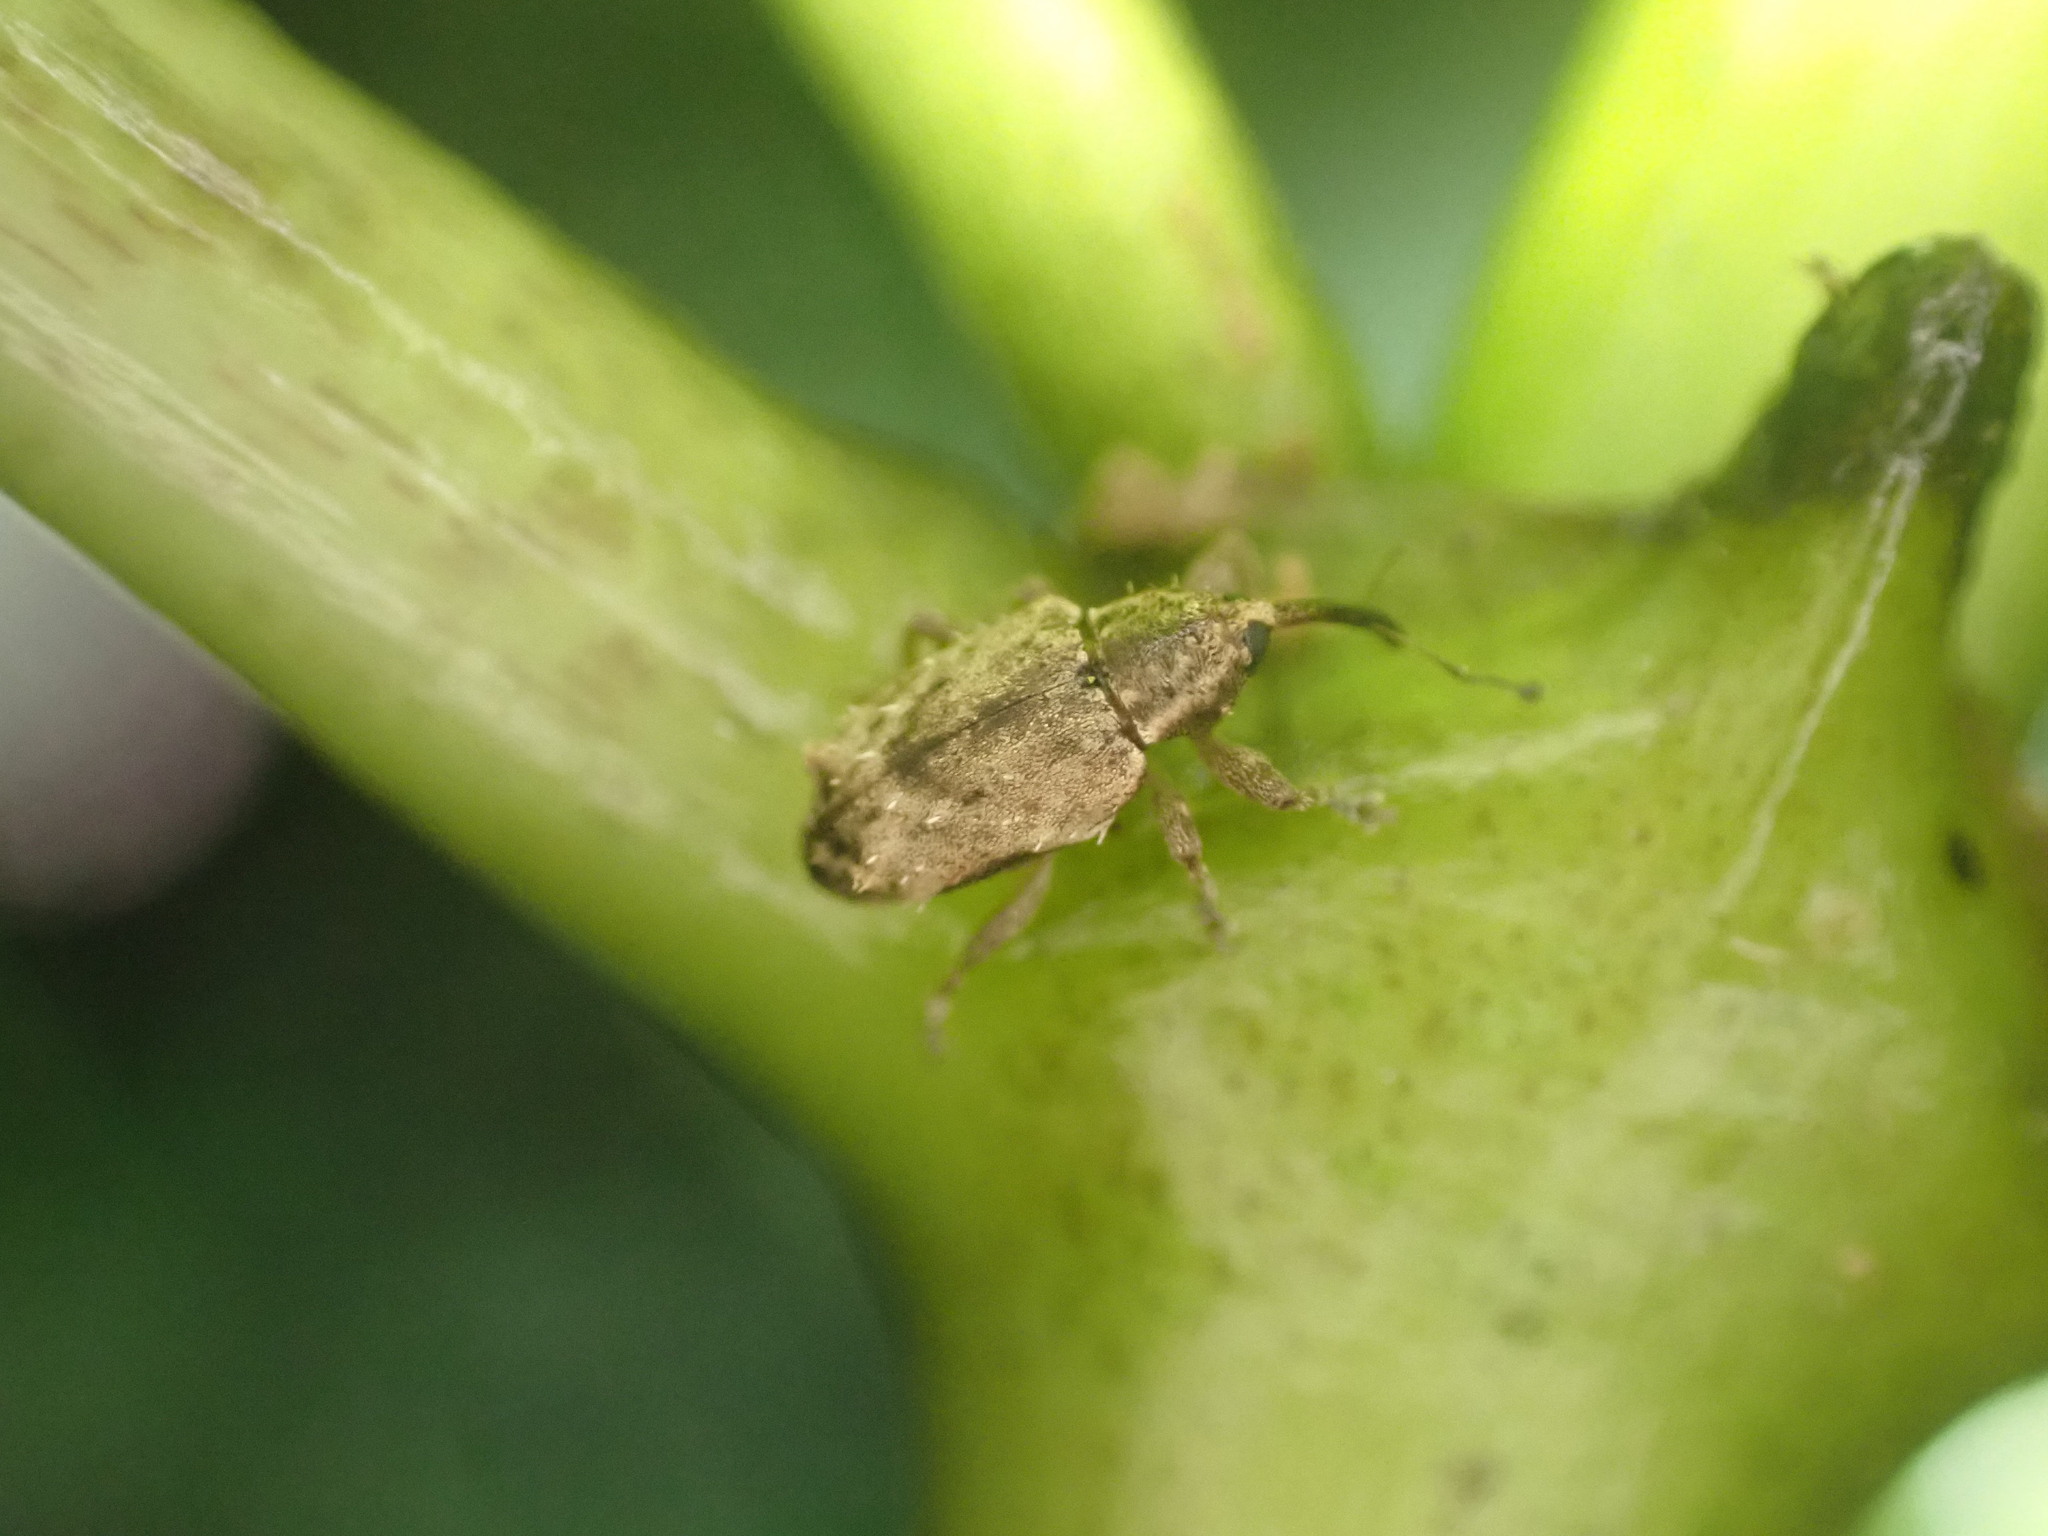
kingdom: Animalia
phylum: Arthropoda
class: Insecta
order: Coleoptera
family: Curculionidae
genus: Praolepra
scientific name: Praolepra infusca
